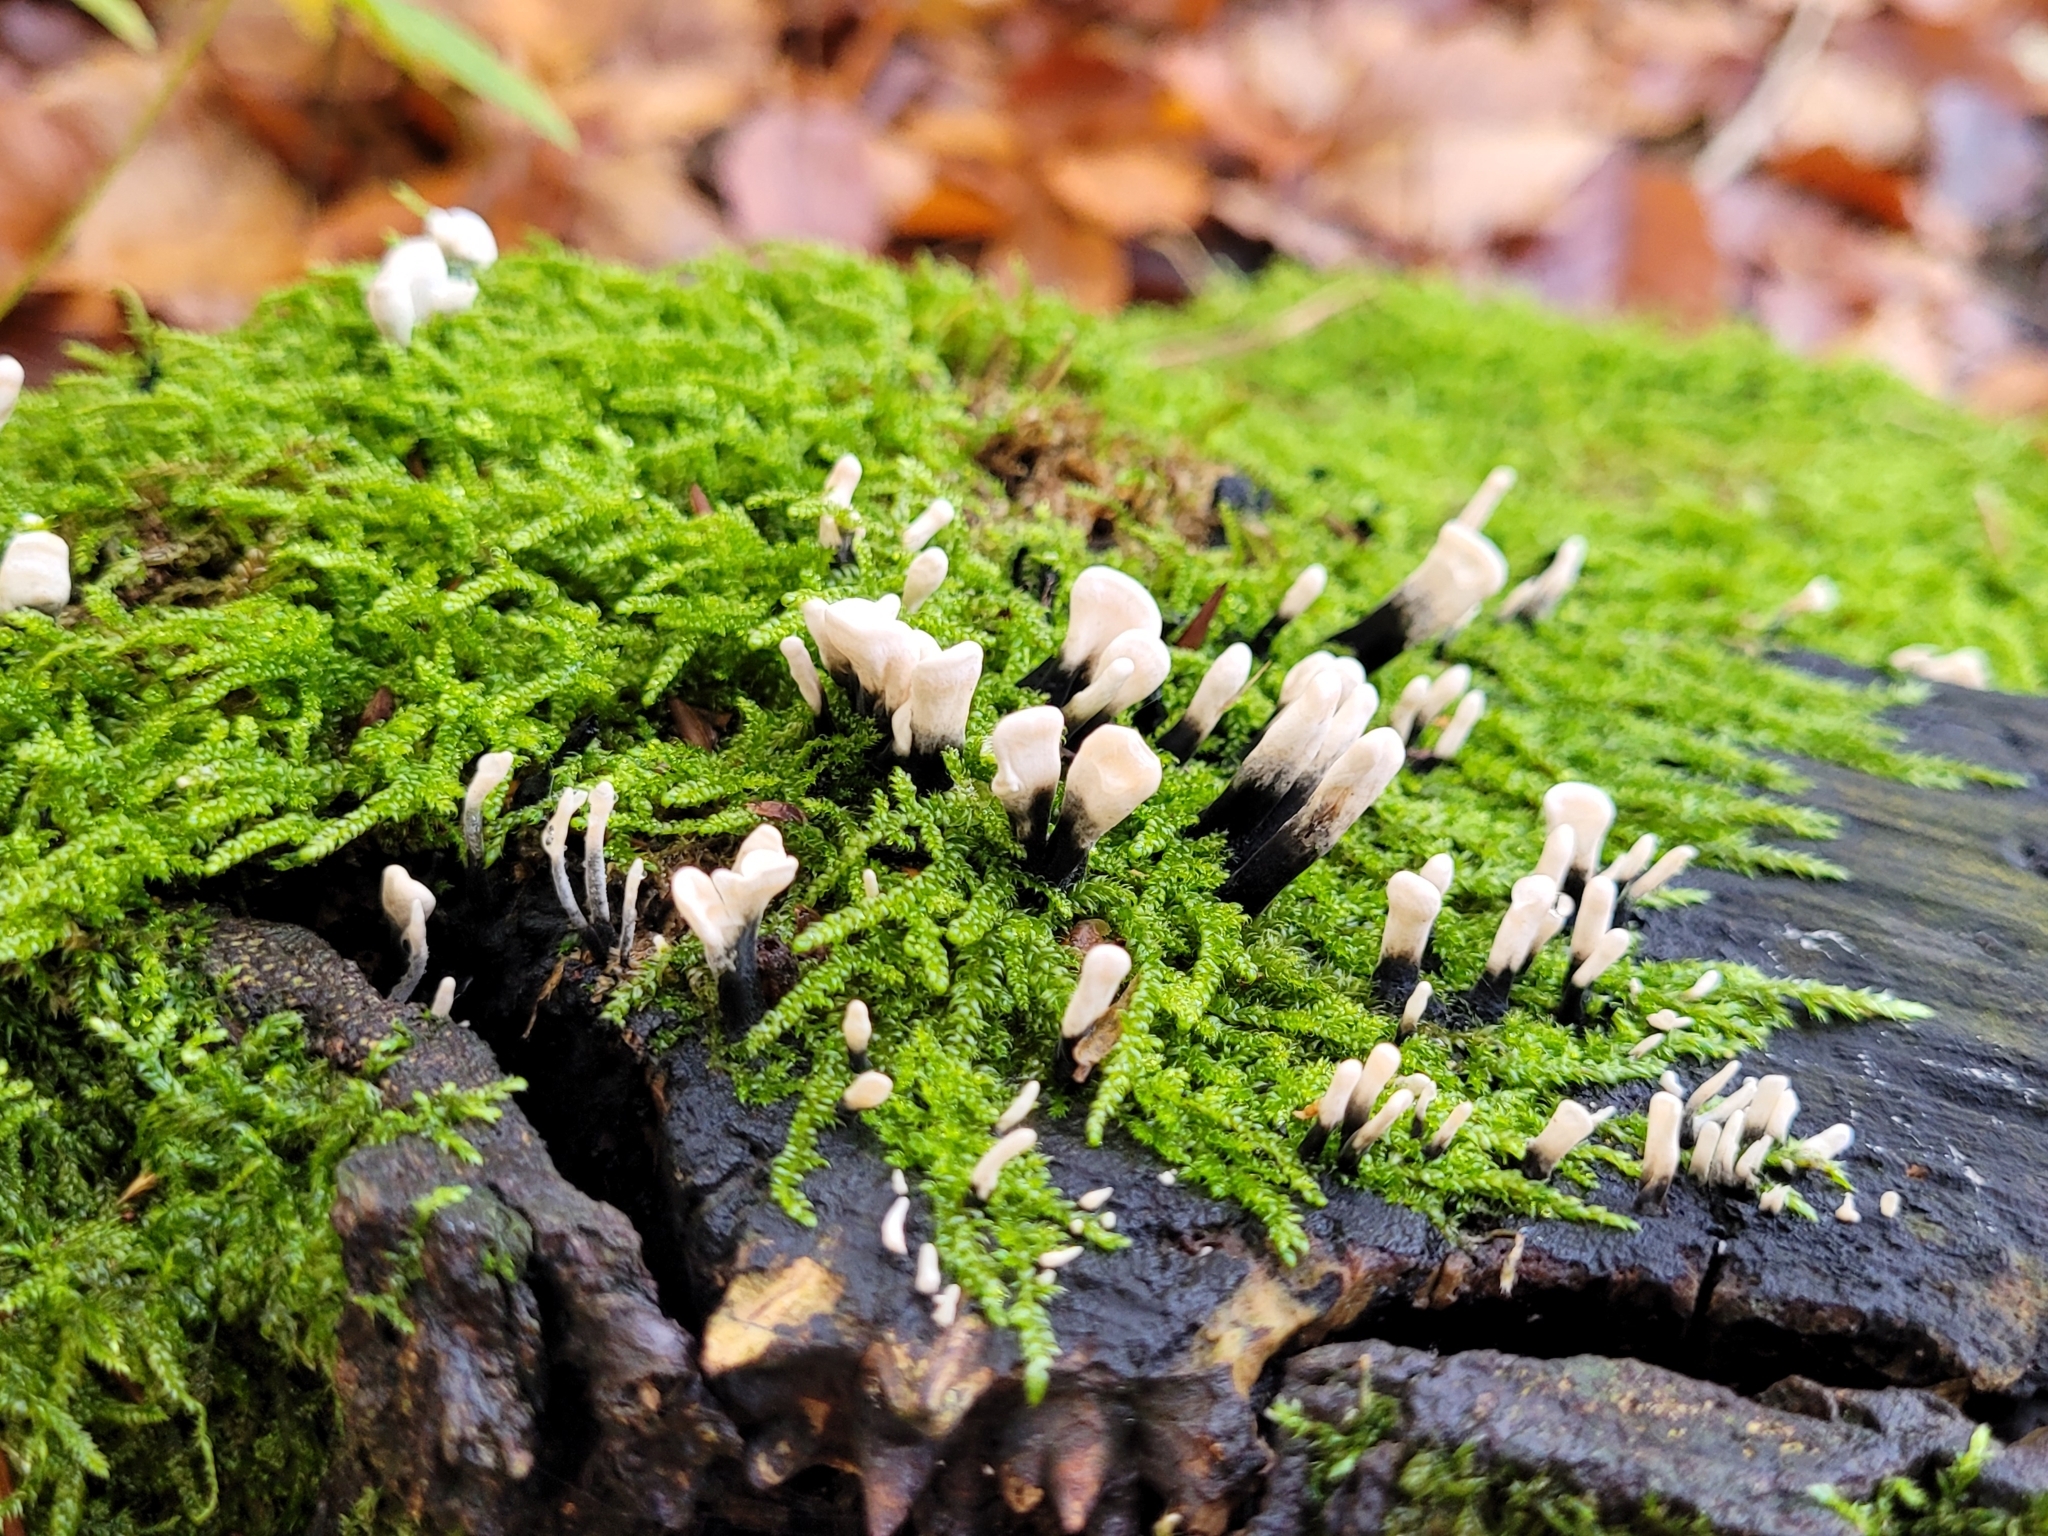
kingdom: Fungi
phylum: Ascomycota
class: Sordariomycetes
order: Xylariales
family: Xylariaceae
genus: Xylaria
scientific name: Xylaria hypoxylon
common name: Candle-snuff fungus
